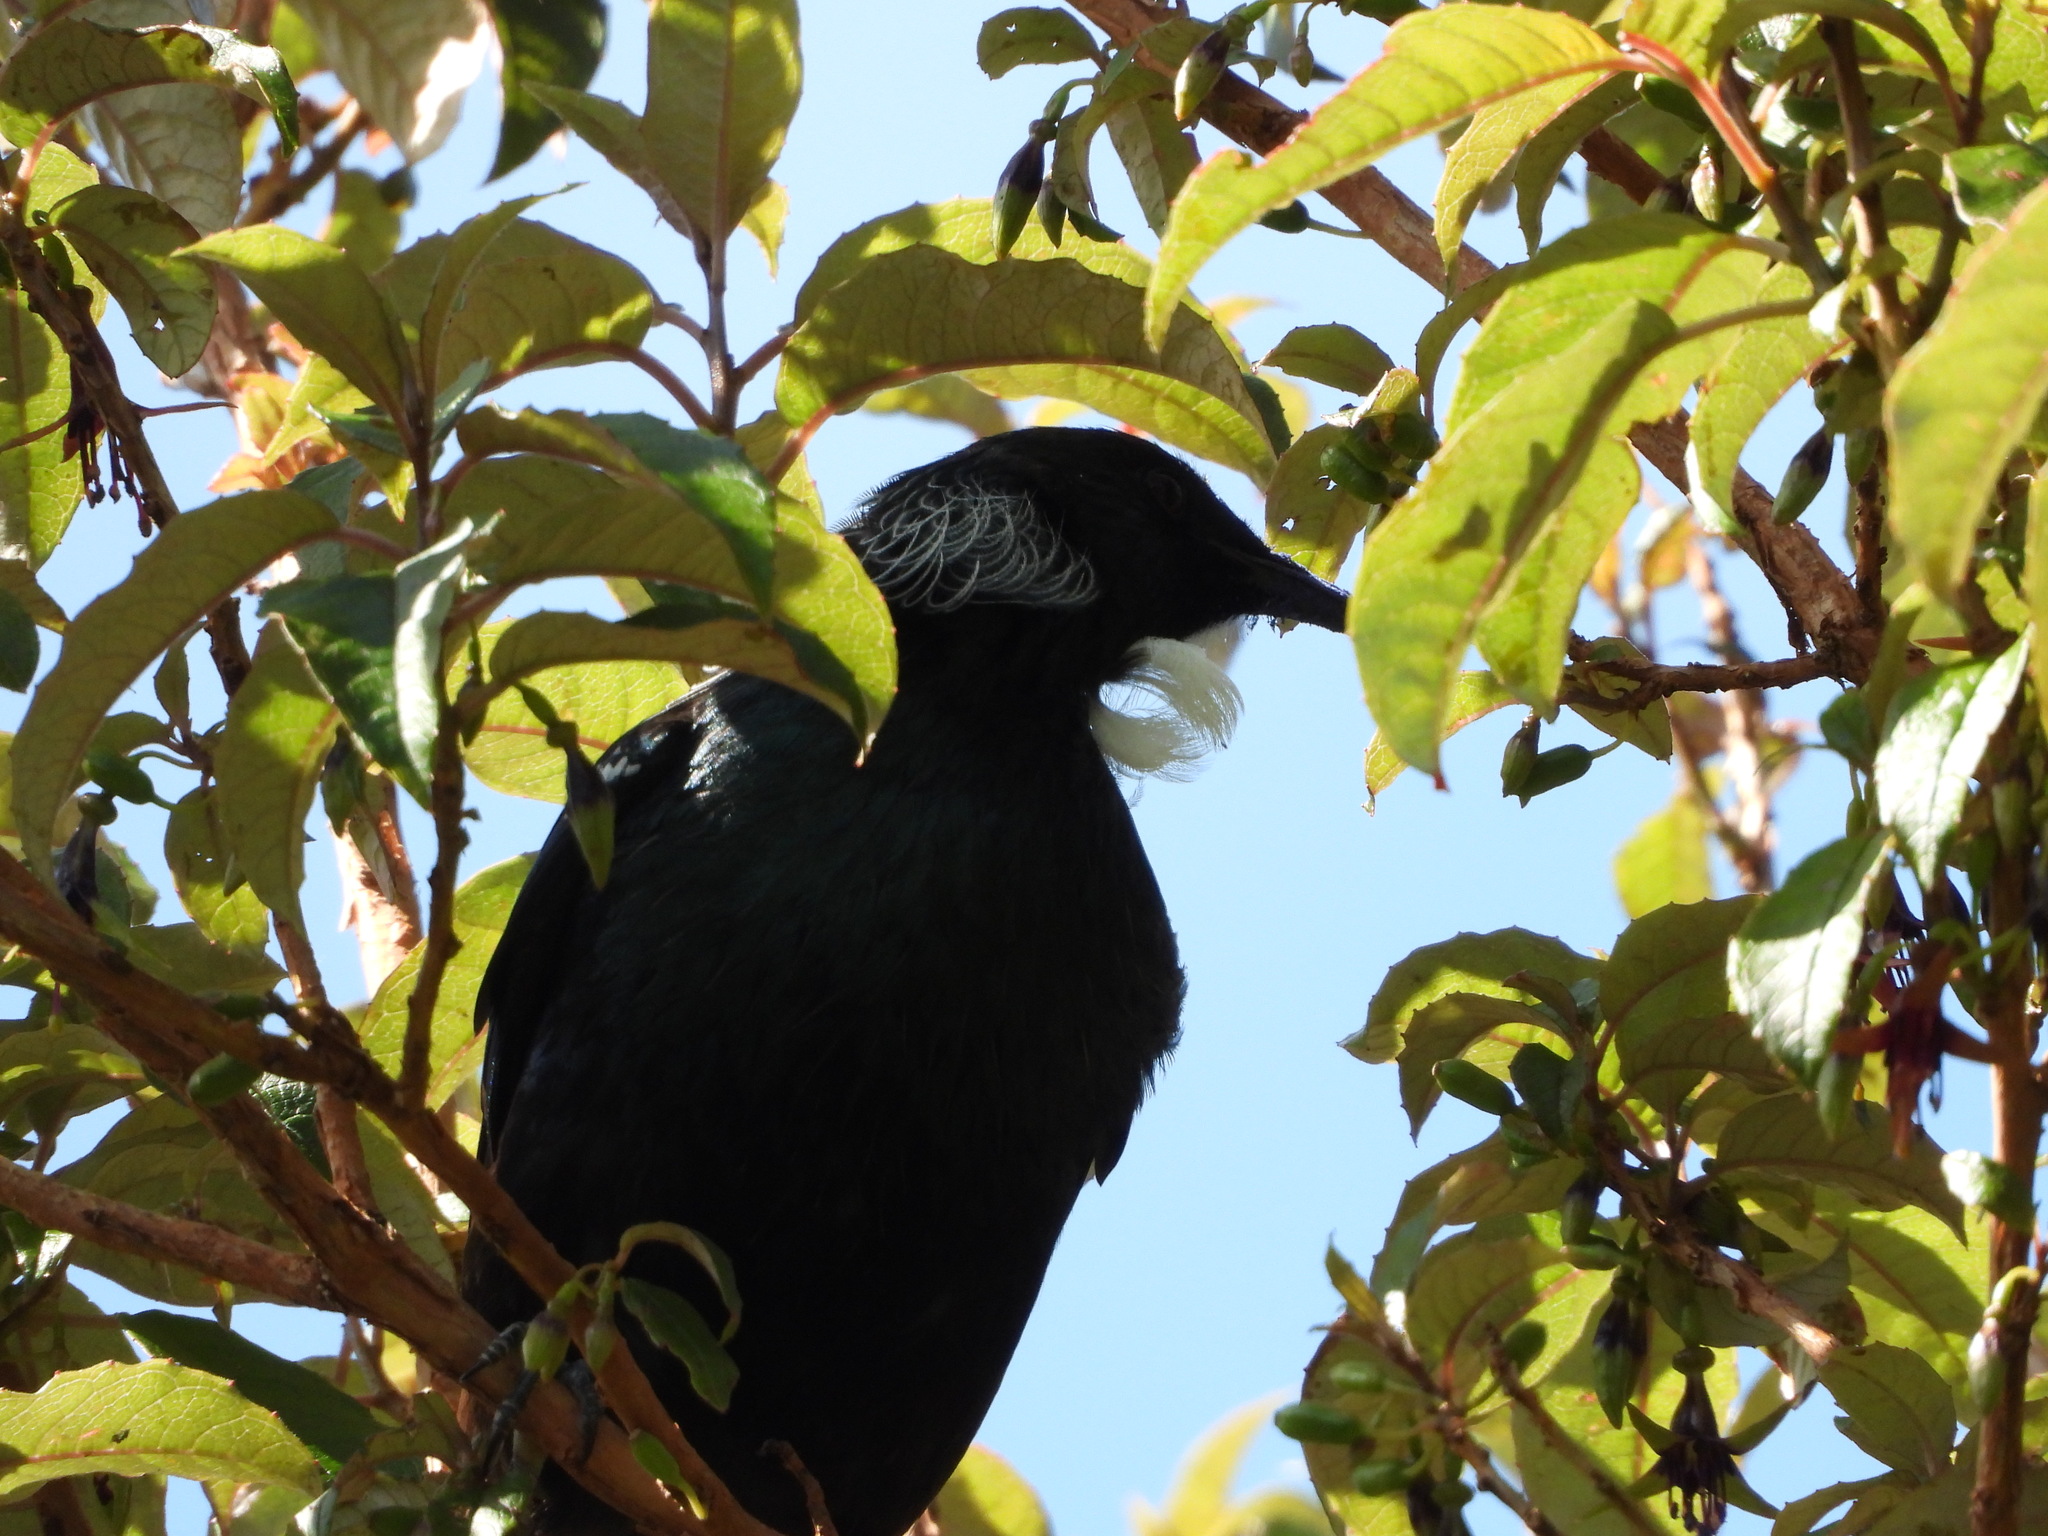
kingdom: Animalia
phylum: Chordata
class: Aves
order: Passeriformes
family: Meliphagidae
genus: Prosthemadera
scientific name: Prosthemadera novaeseelandiae
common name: Tui
